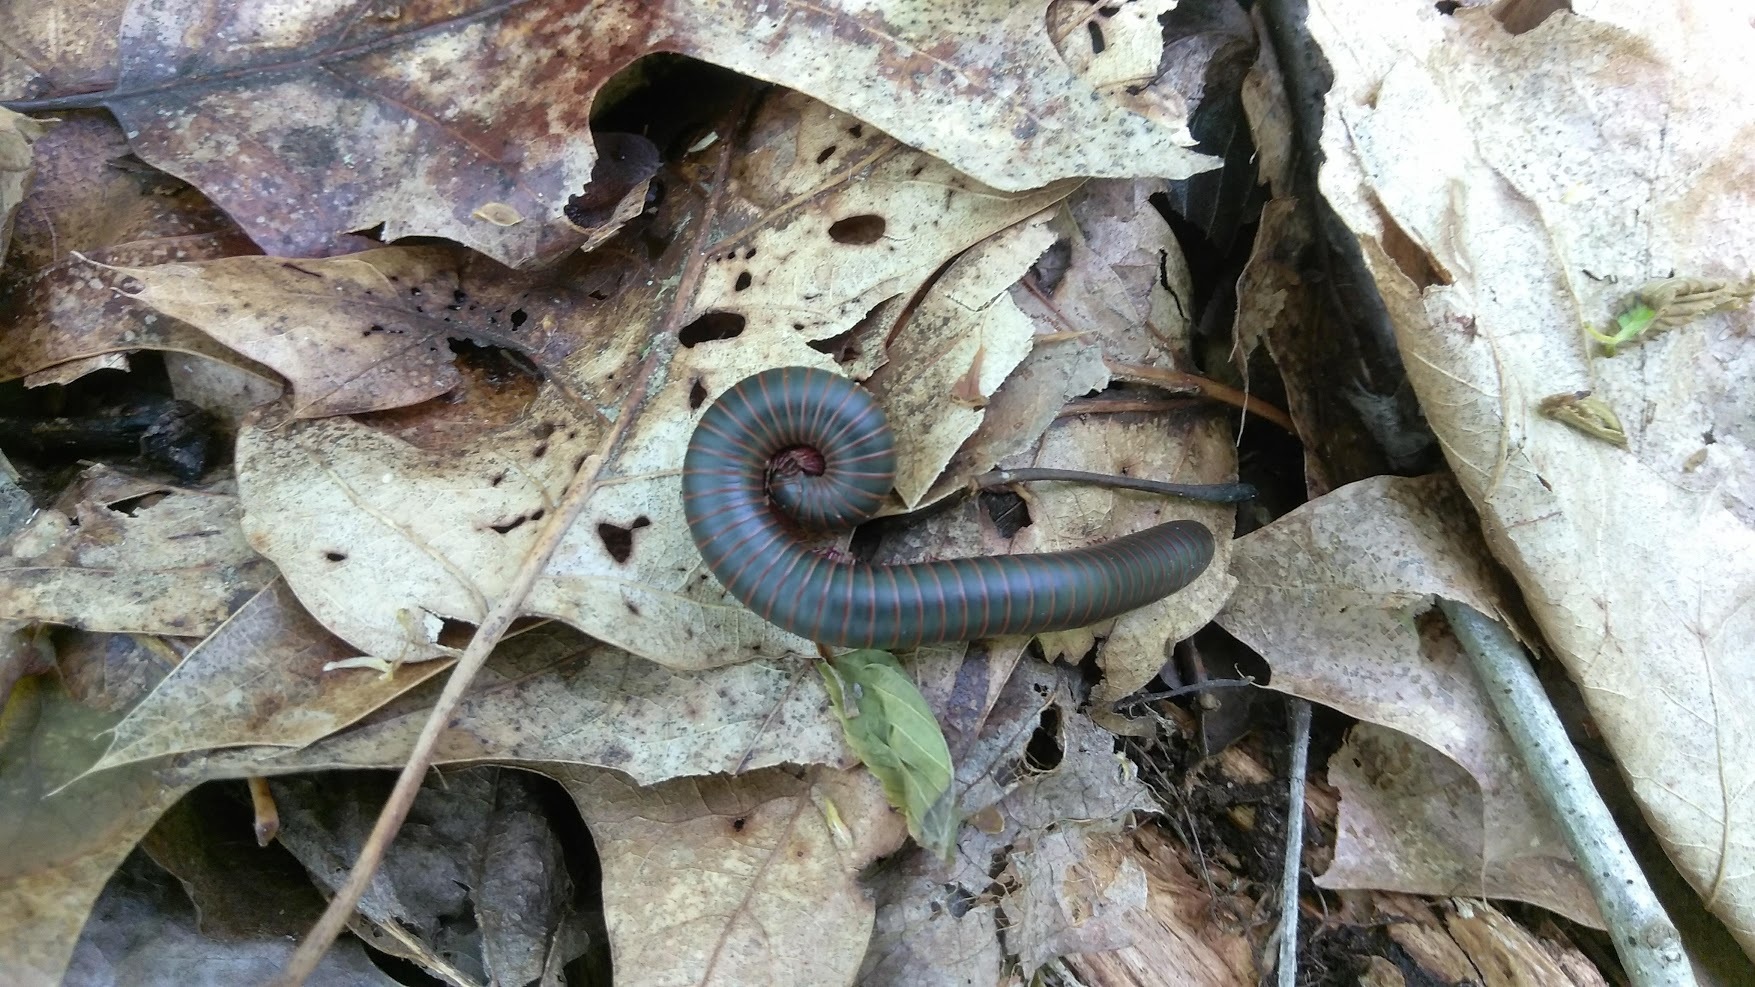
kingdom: Animalia
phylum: Arthropoda
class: Diplopoda
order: Spirobolida
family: Spirobolidae
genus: Narceus
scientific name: Narceus
